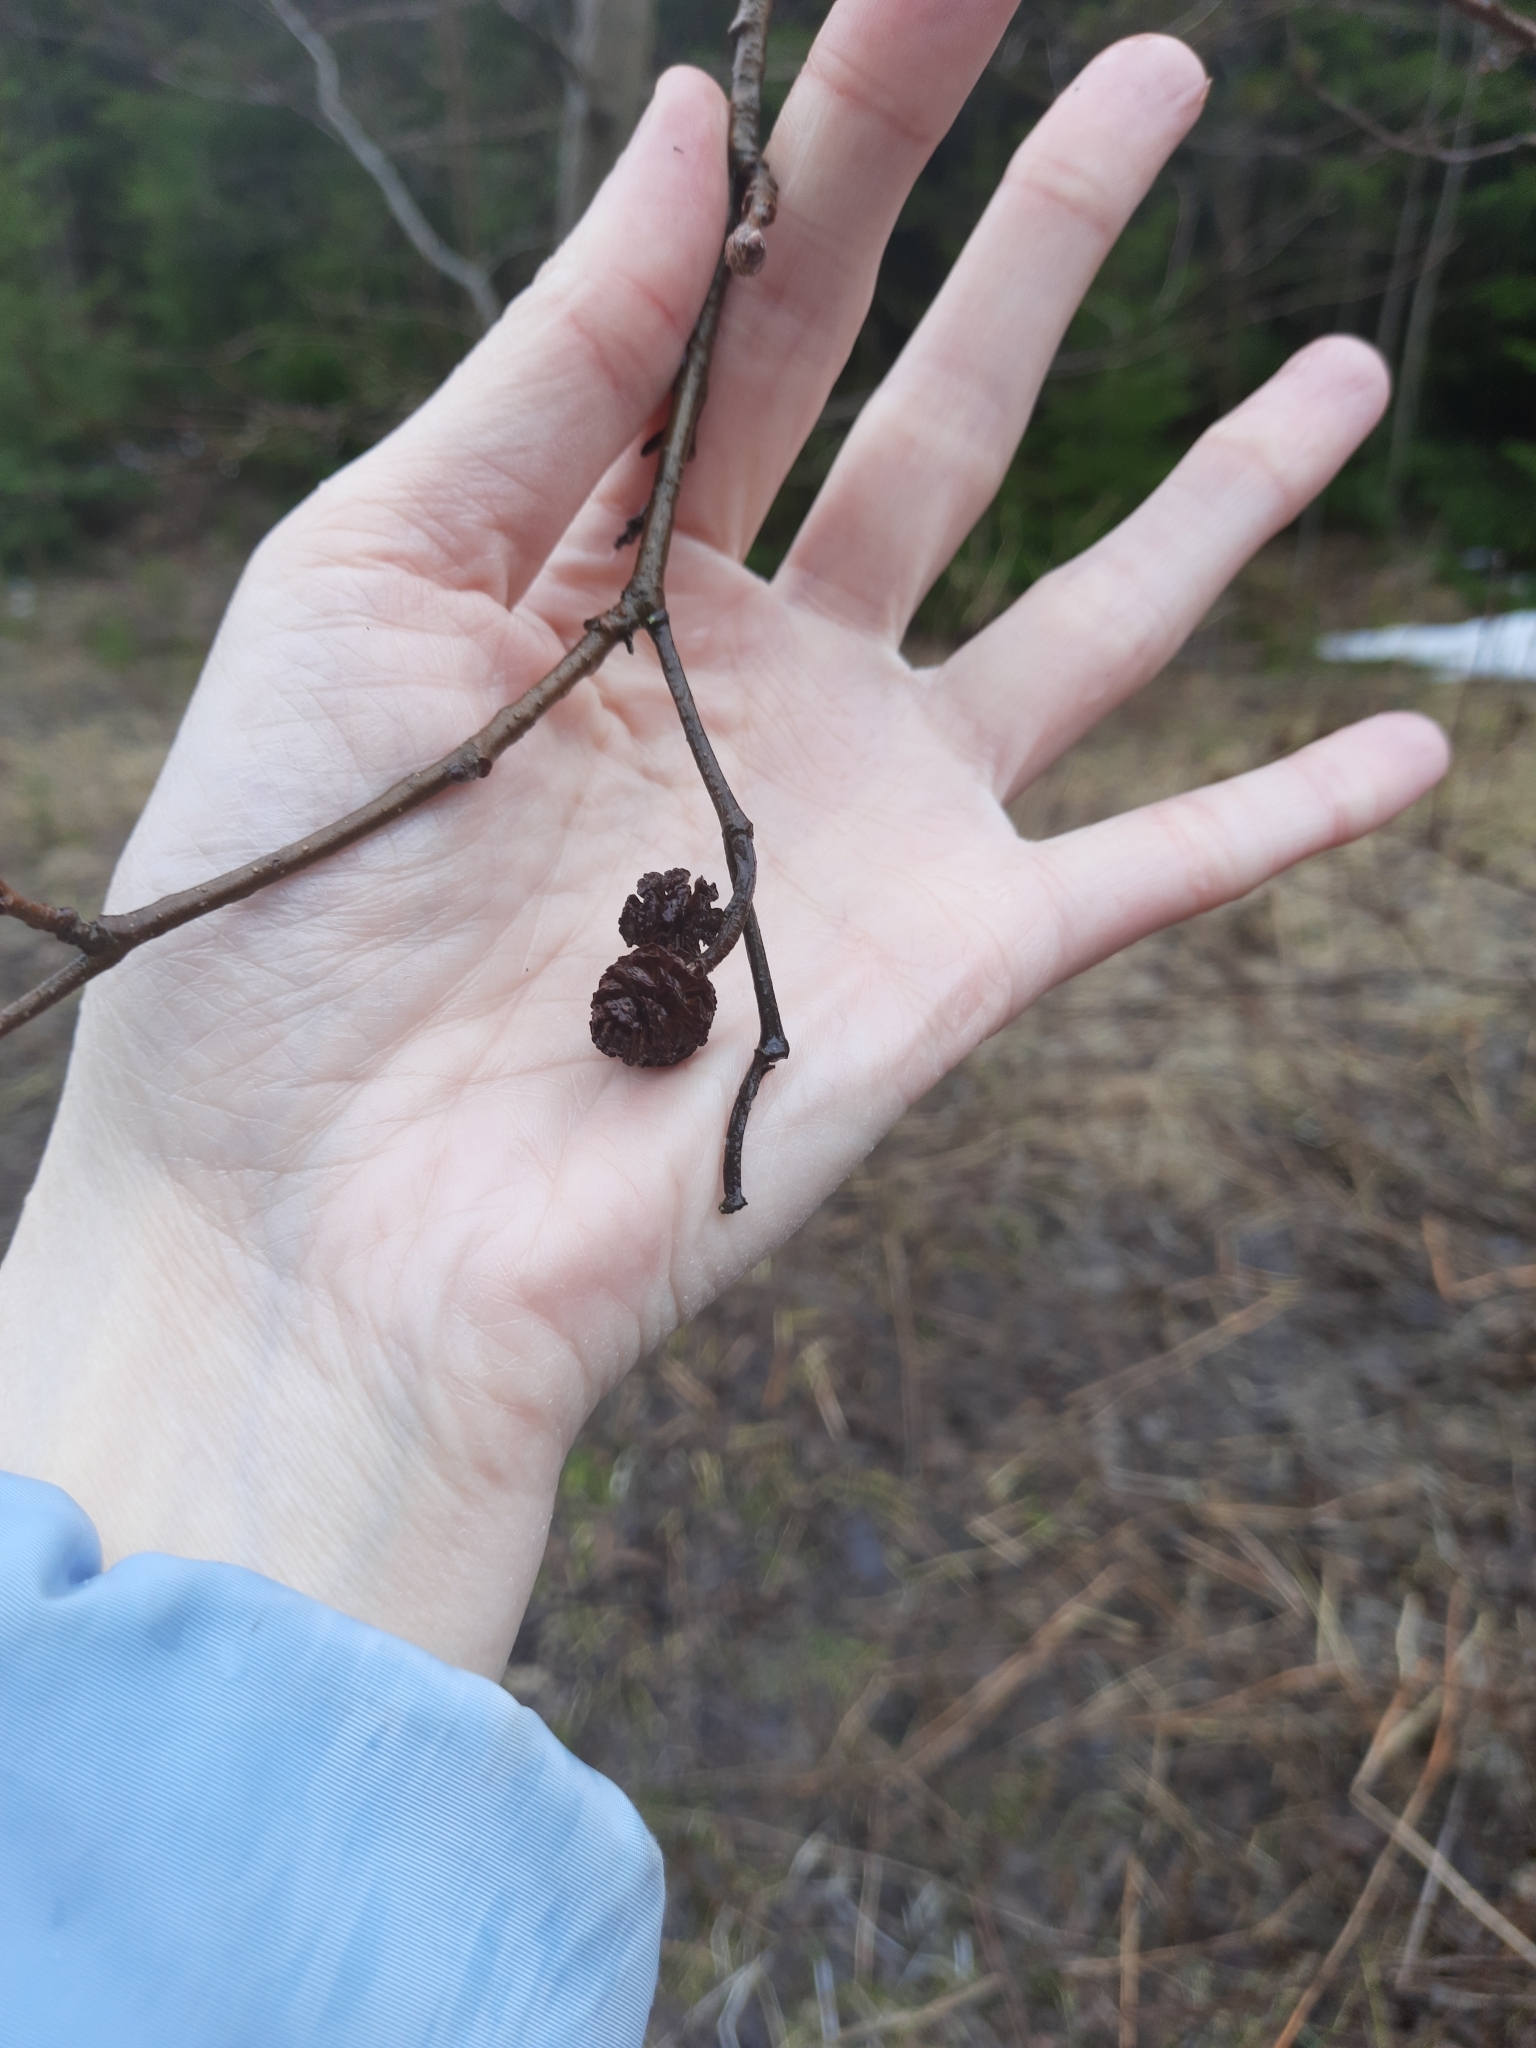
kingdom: Plantae
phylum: Tracheophyta
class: Magnoliopsida
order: Fagales
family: Betulaceae
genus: Alnus
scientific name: Alnus incana
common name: Grey alder
